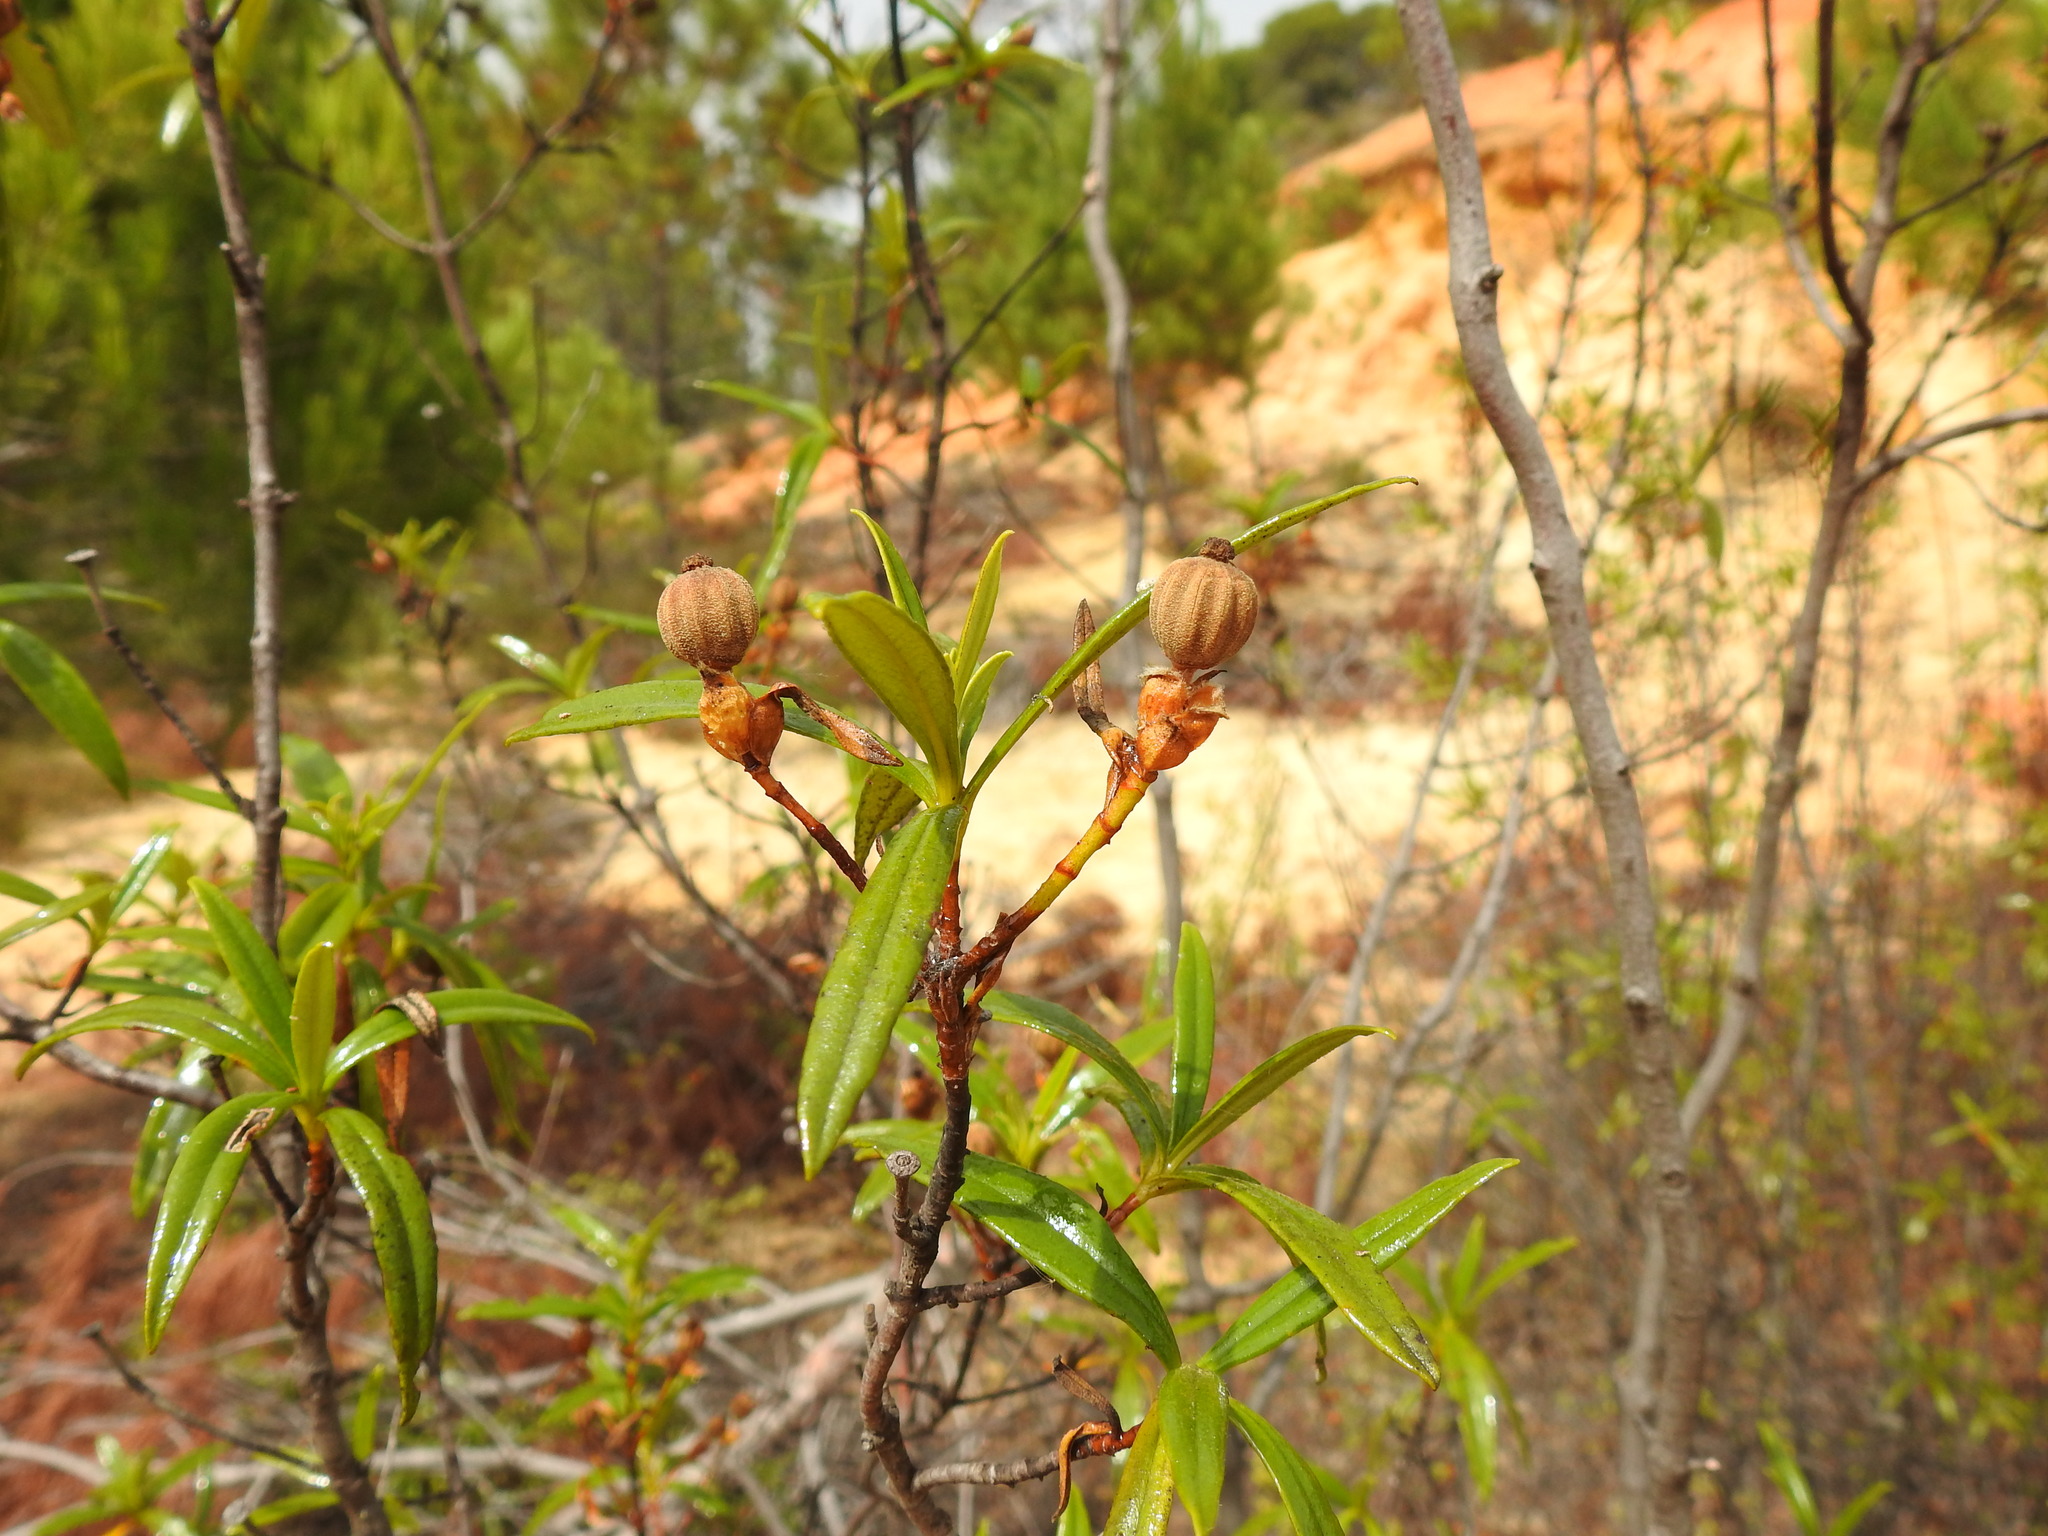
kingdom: Plantae
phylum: Tracheophyta
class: Magnoliopsida
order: Malvales
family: Cistaceae
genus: Cistus
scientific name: Cistus ladanifer
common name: Common gum cistus
